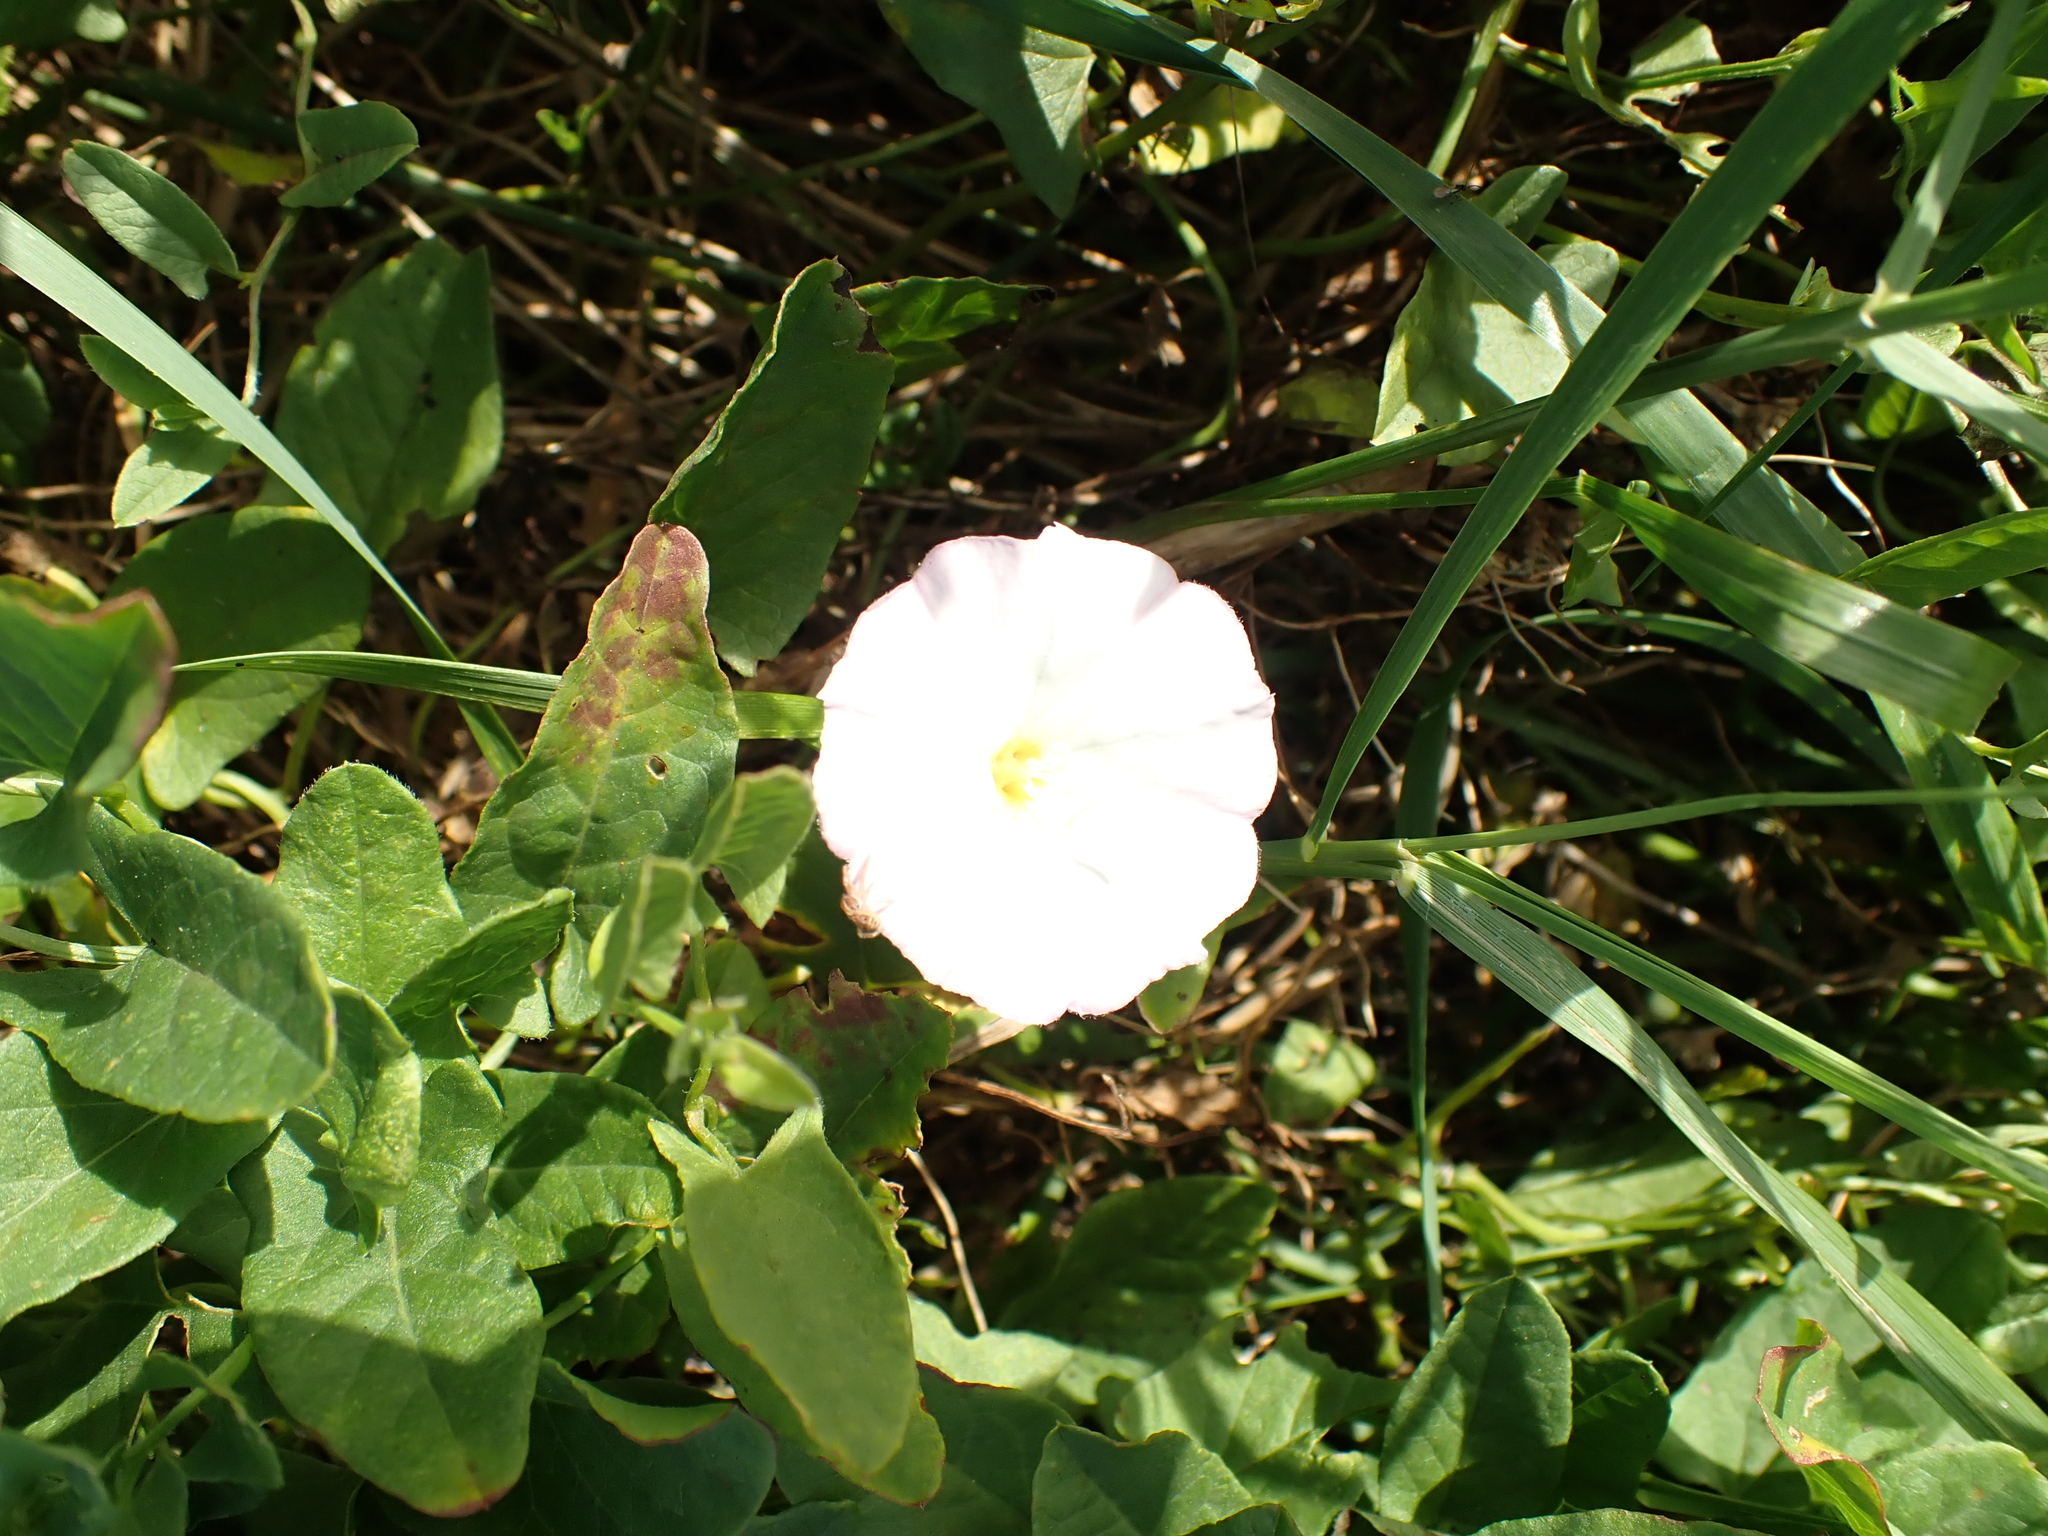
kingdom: Plantae
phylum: Tracheophyta
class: Magnoliopsida
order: Solanales
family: Convolvulaceae
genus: Convolvulus
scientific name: Convolvulus arvensis
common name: Field bindweed
